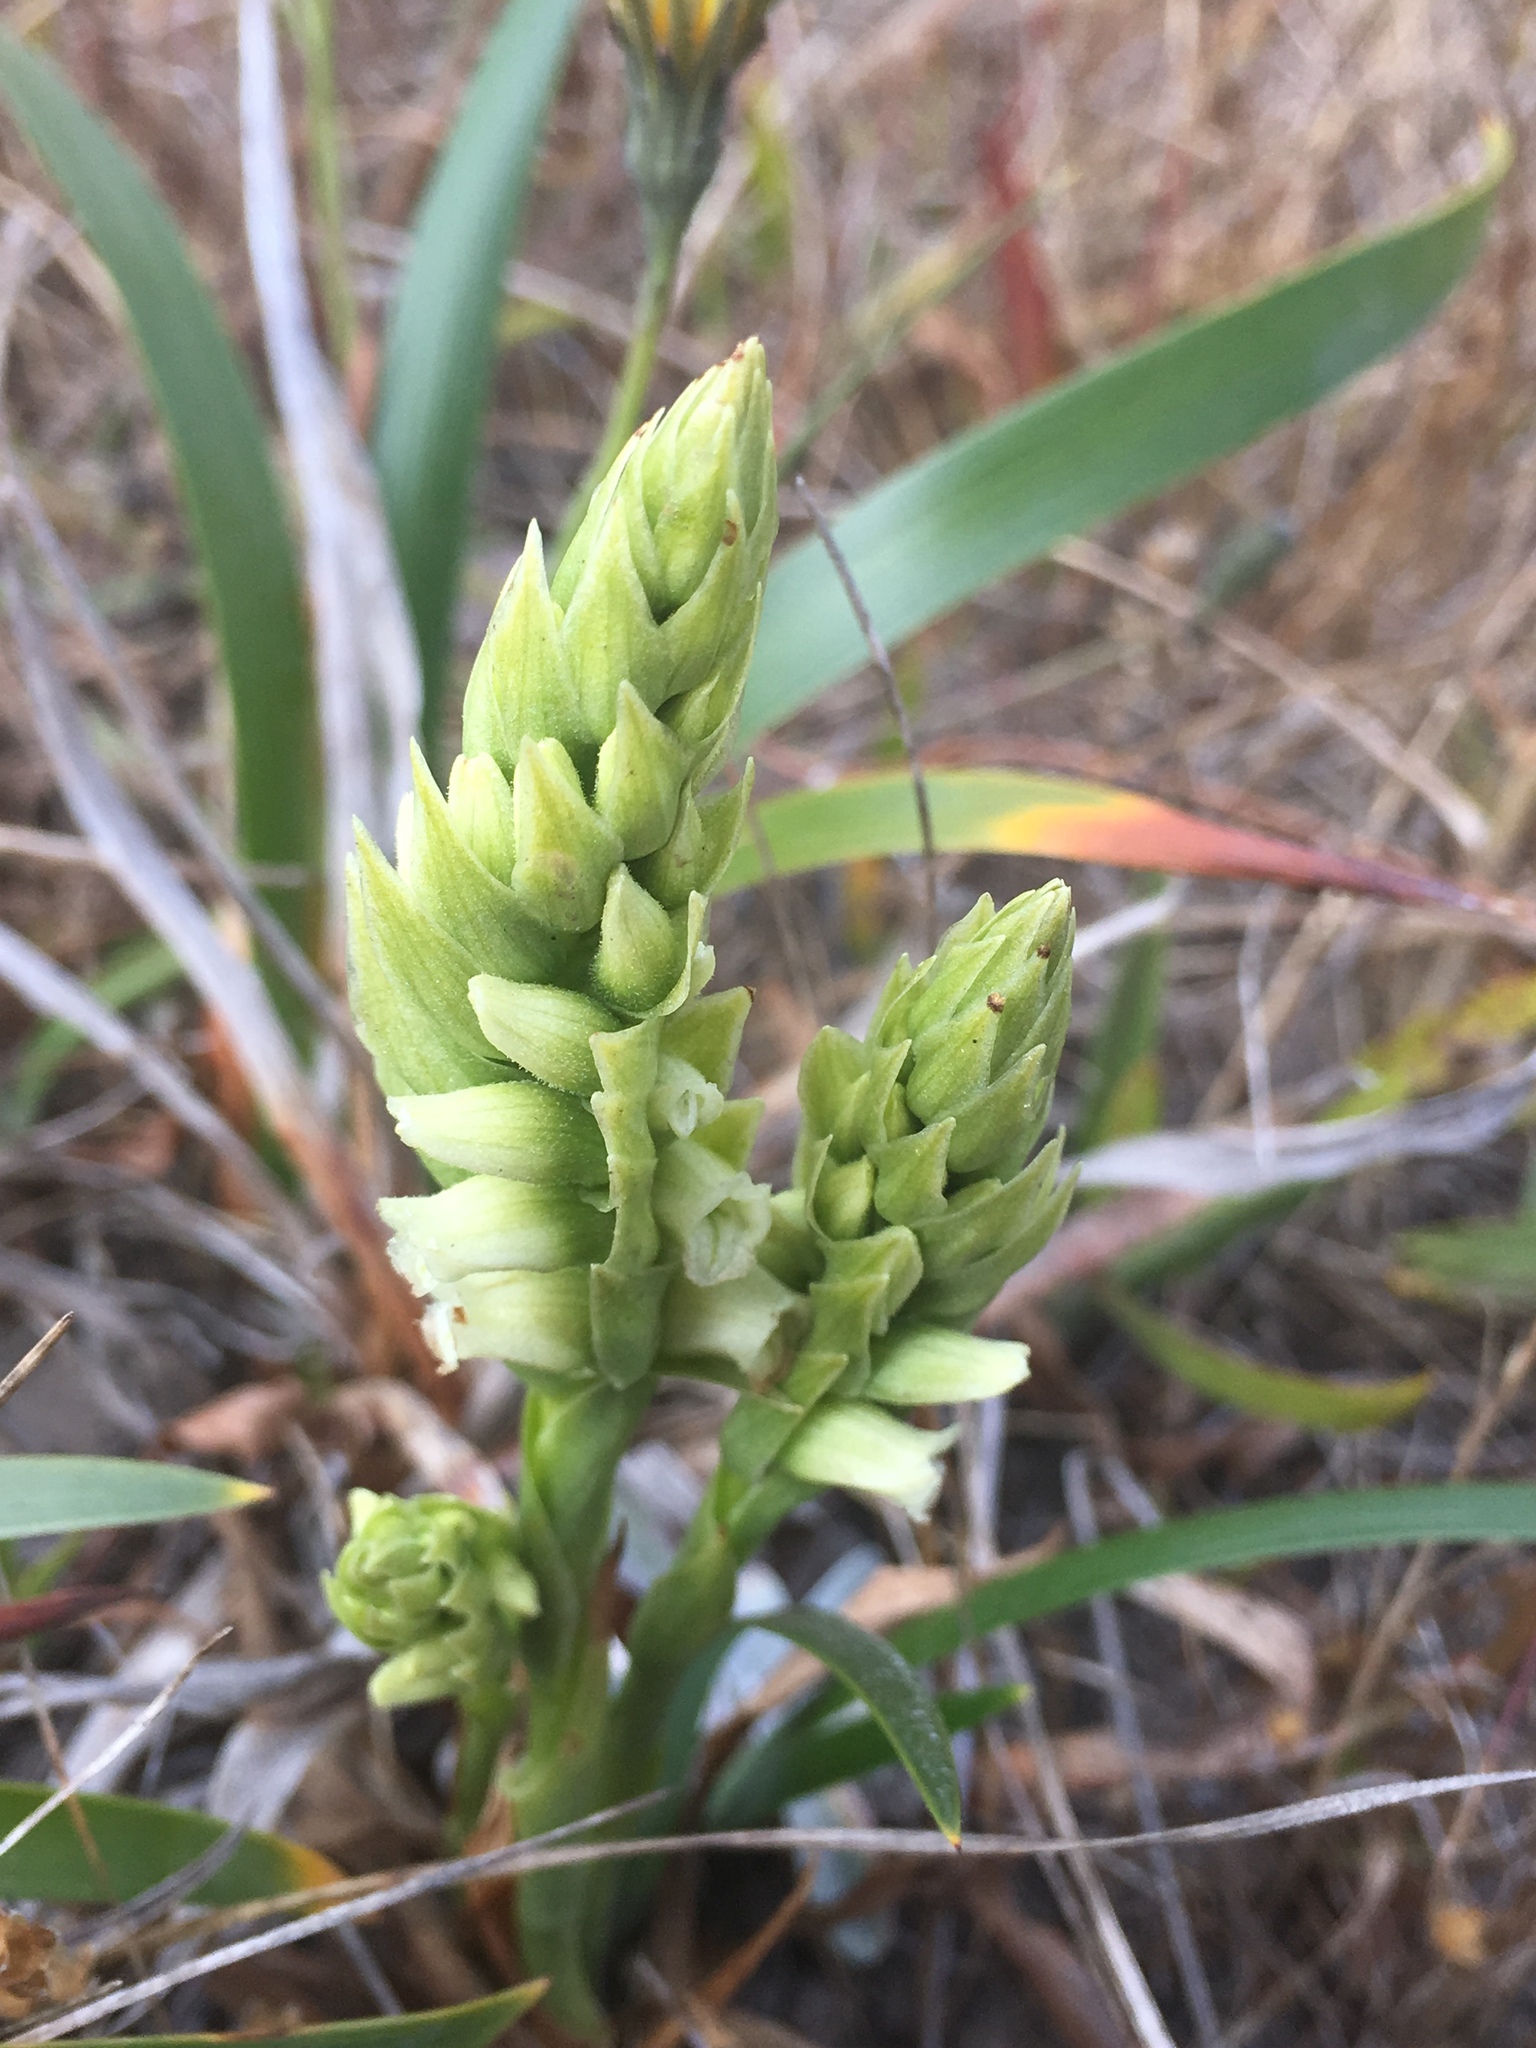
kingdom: Plantae
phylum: Tracheophyta
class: Liliopsida
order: Asparagales
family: Orchidaceae
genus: Spiranthes
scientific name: Spiranthes romanzoffiana
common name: Irish lady's-tresses
